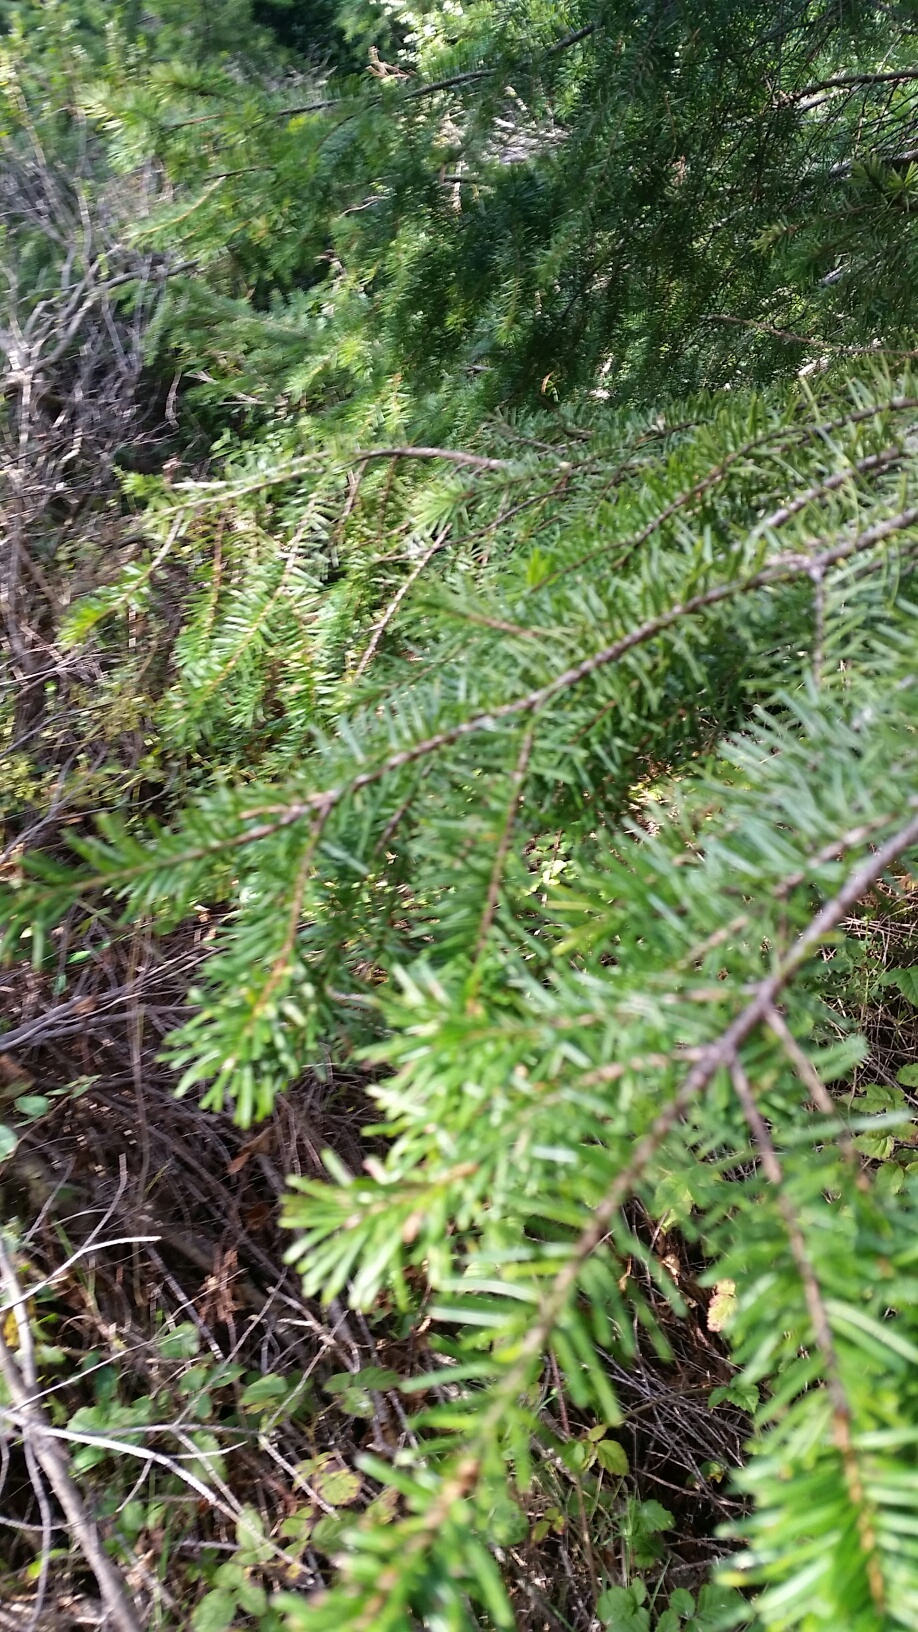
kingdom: Plantae
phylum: Tracheophyta
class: Pinopsida
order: Pinales
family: Pinaceae
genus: Pseudotsuga
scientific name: Pseudotsuga menziesii
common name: Douglas fir
